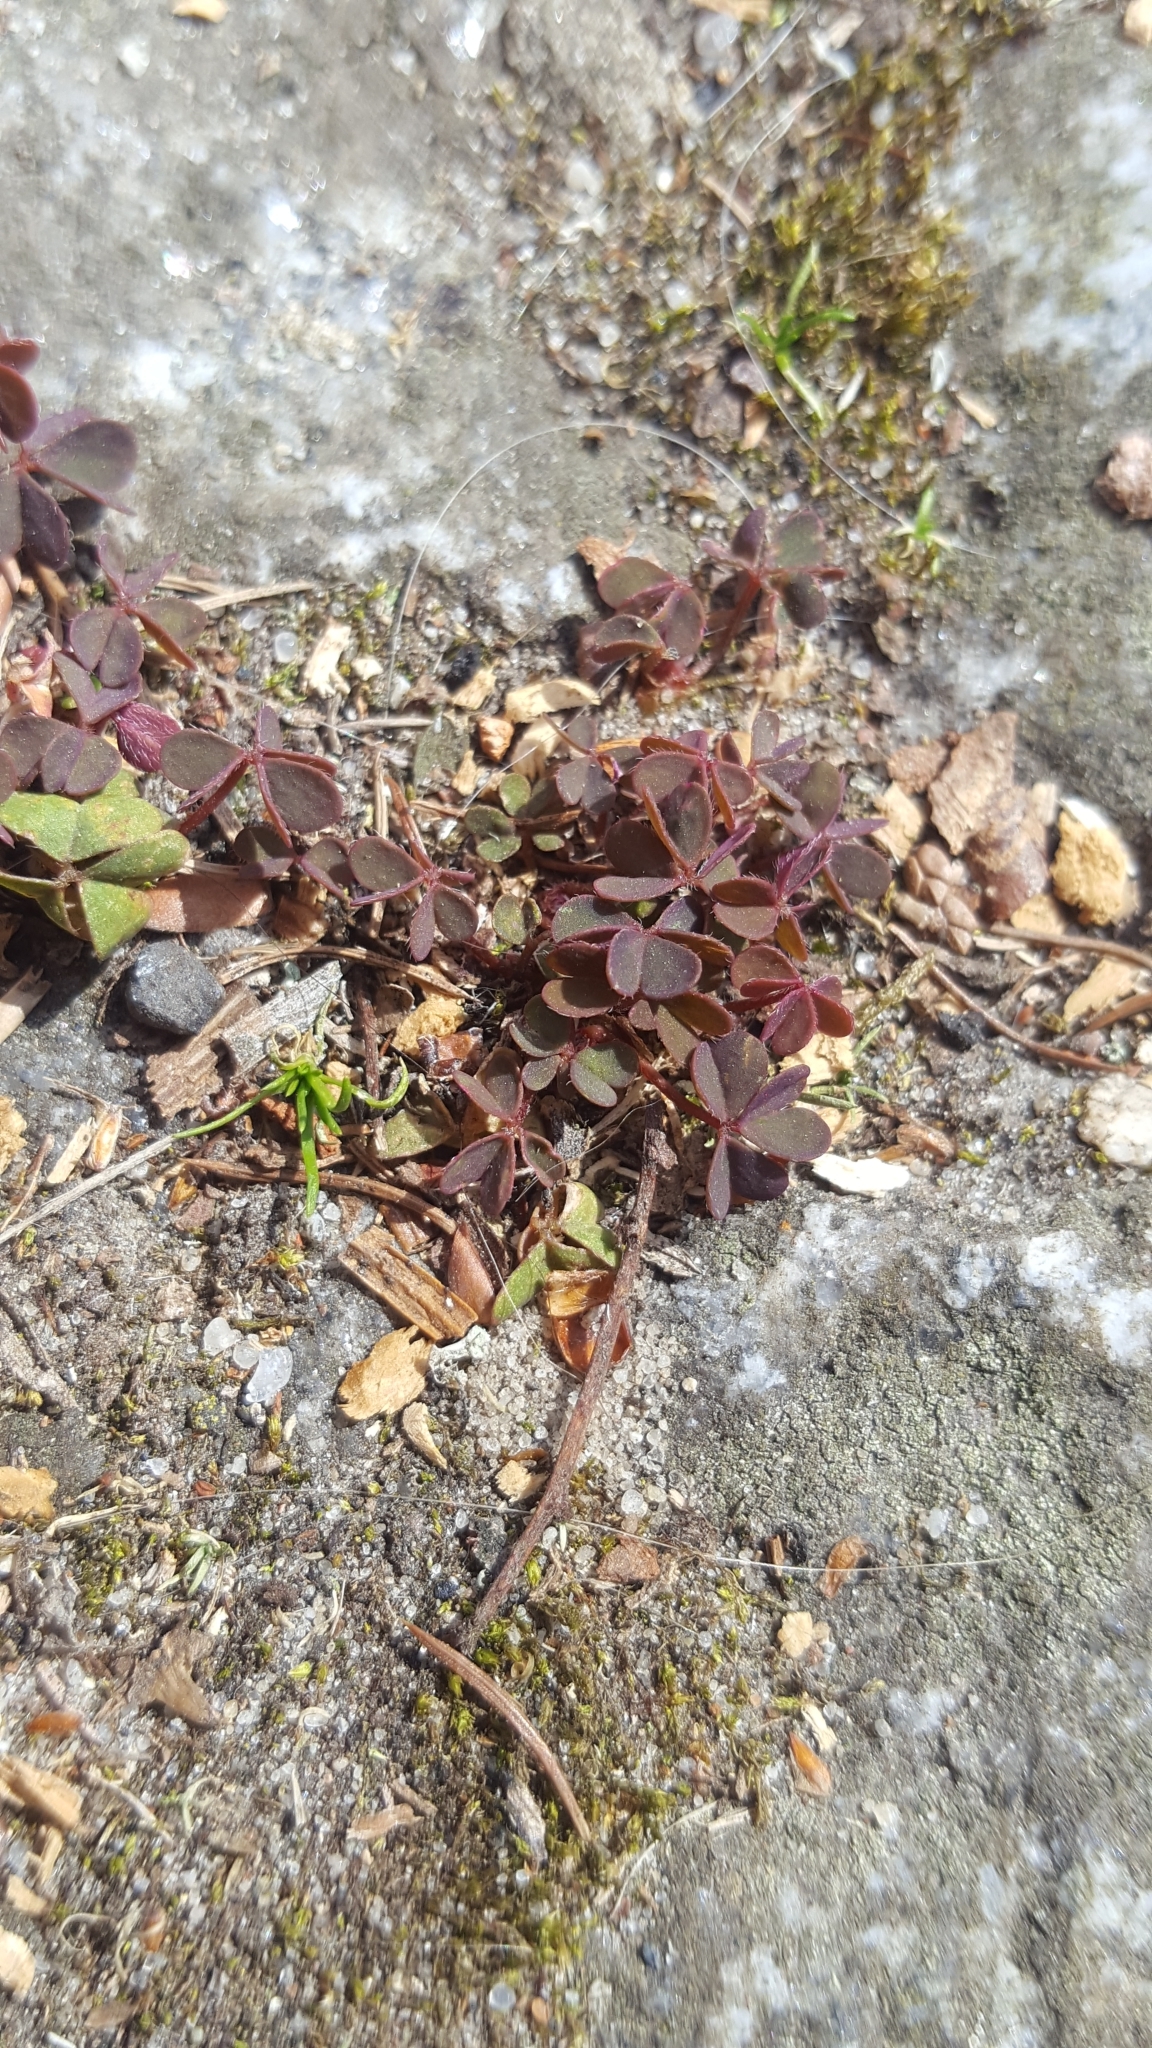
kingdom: Plantae
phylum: Tracheophyta
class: Magnoliopsida
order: Oxalidales
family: Oxalidaceae
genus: Oxalis
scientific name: Oxalis corniculata
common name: Procumbent yellow-sorrel
